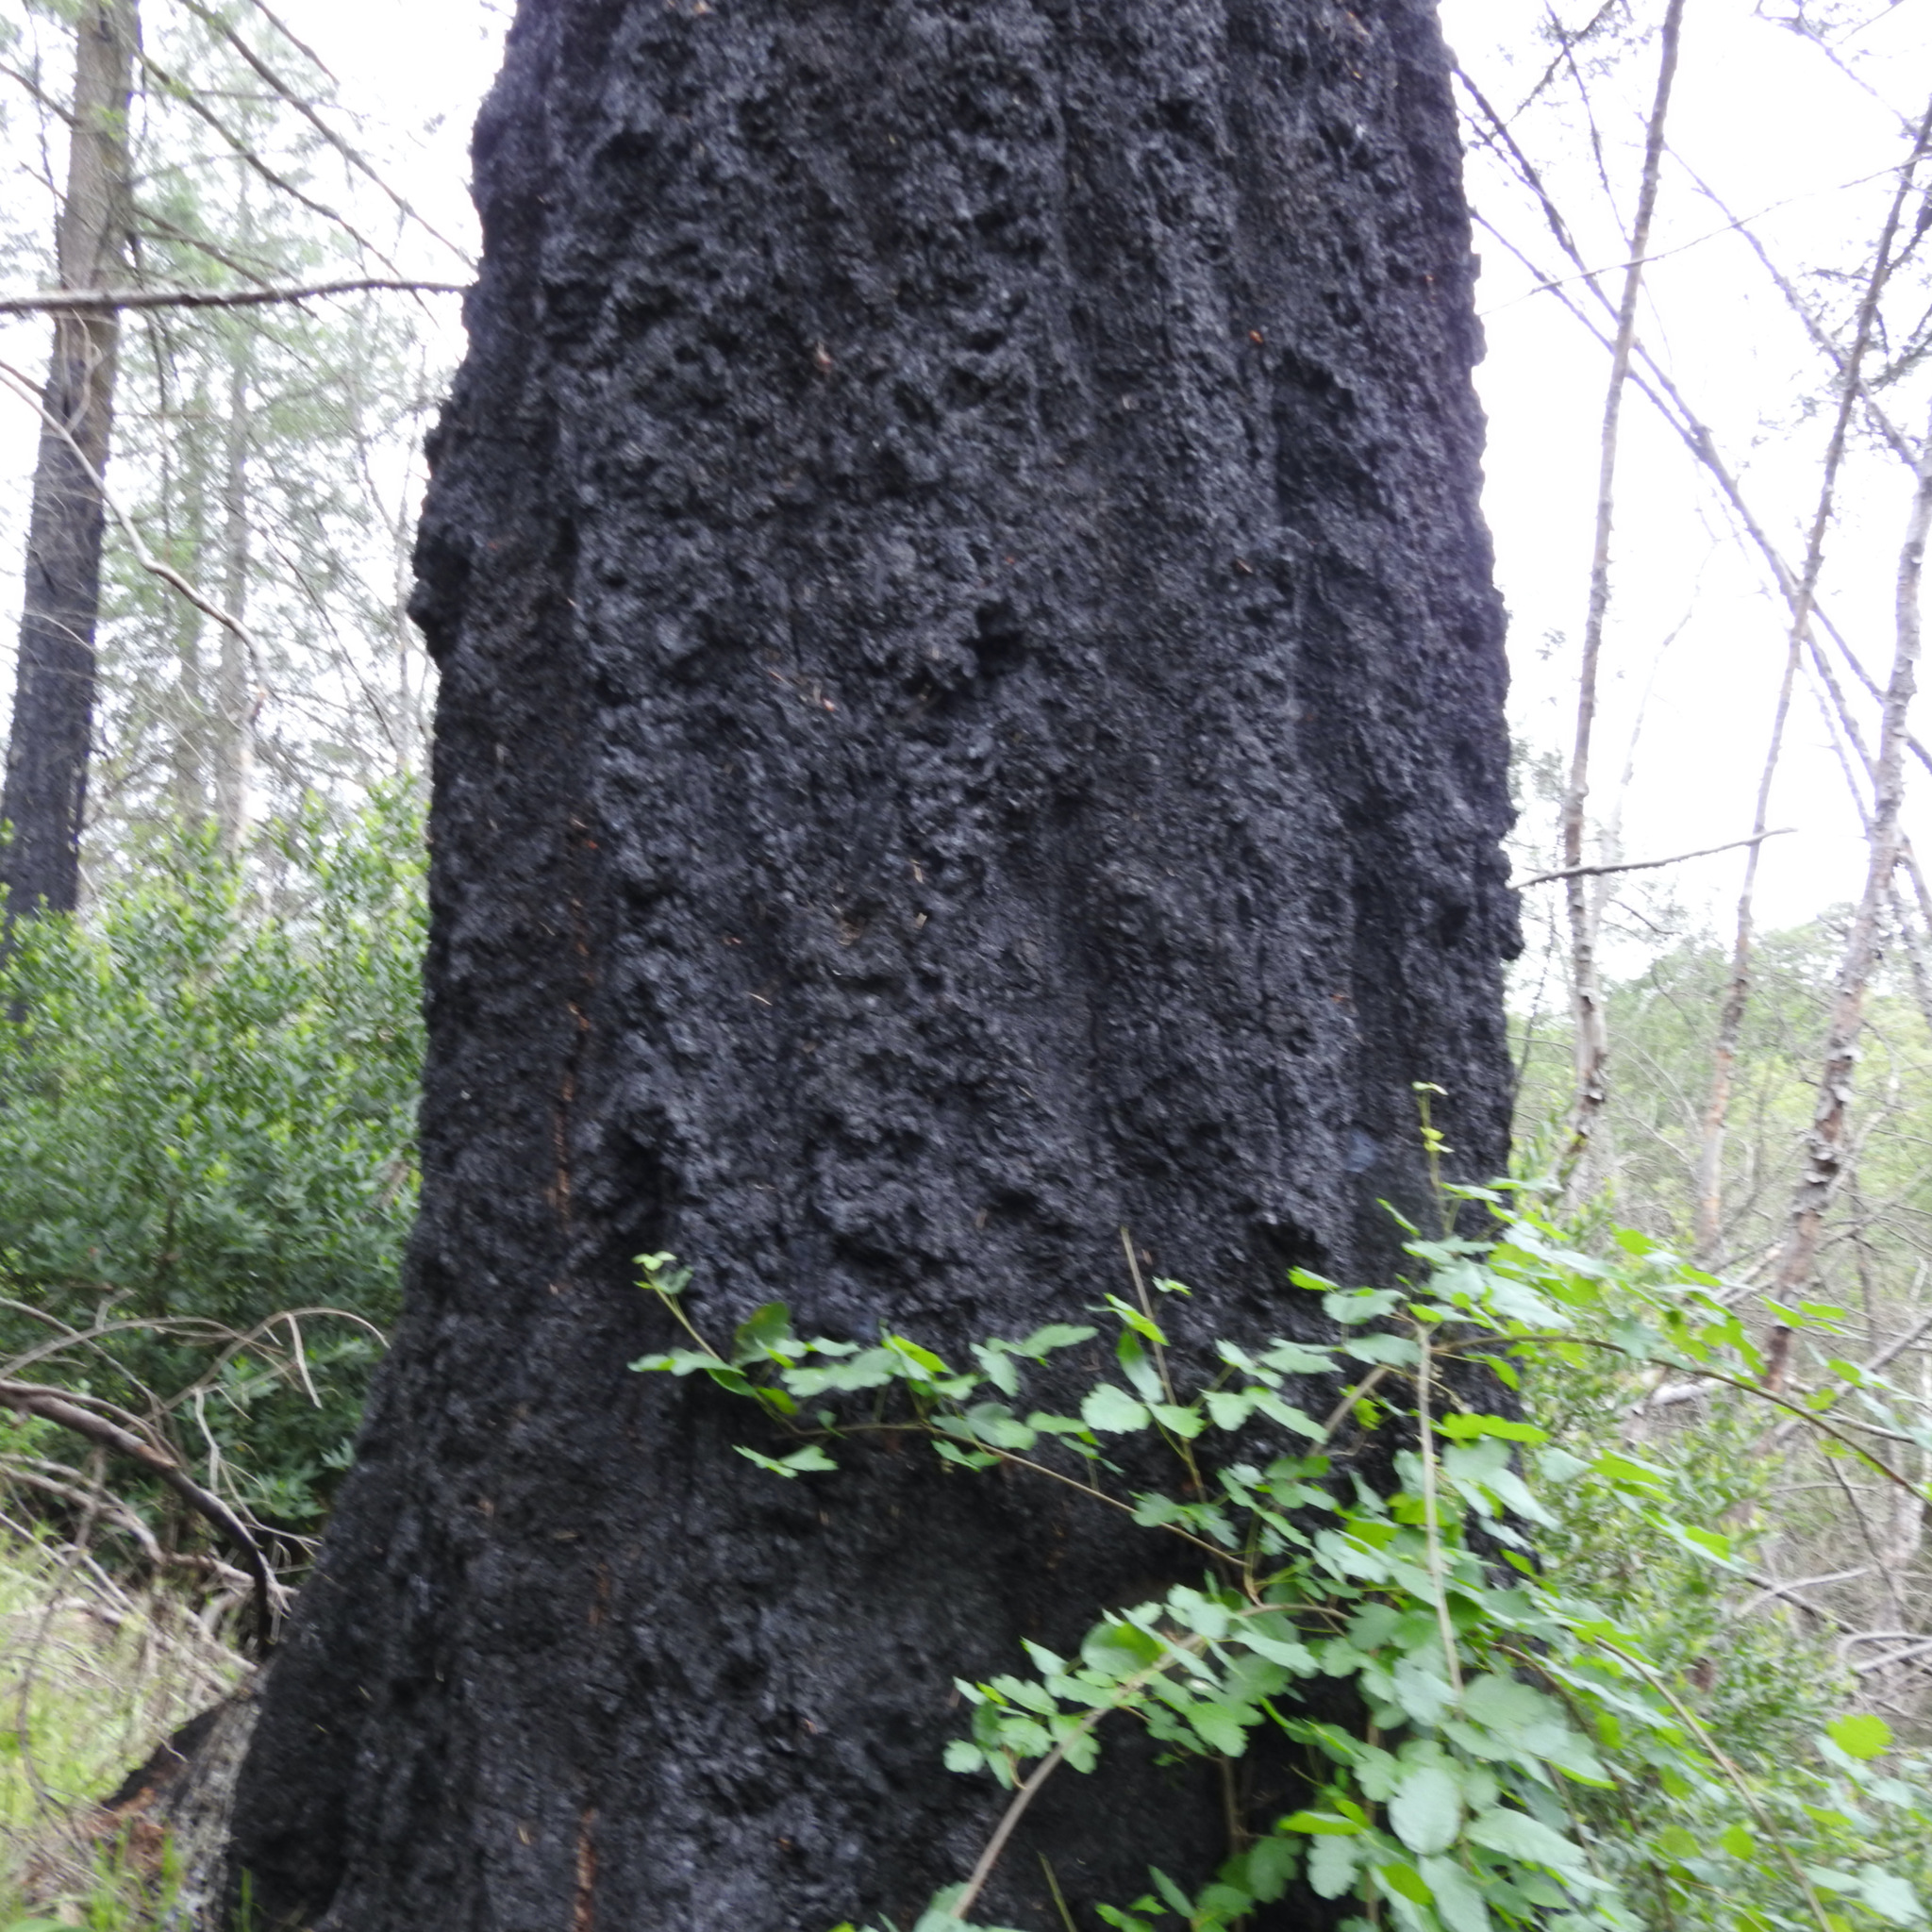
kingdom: Plantae
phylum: Tracheophyta
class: Pinopsida
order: Pinales
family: Pinaceae
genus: Pseudotsuga
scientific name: Pseudotsuga menziesii
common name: Douglas fir
